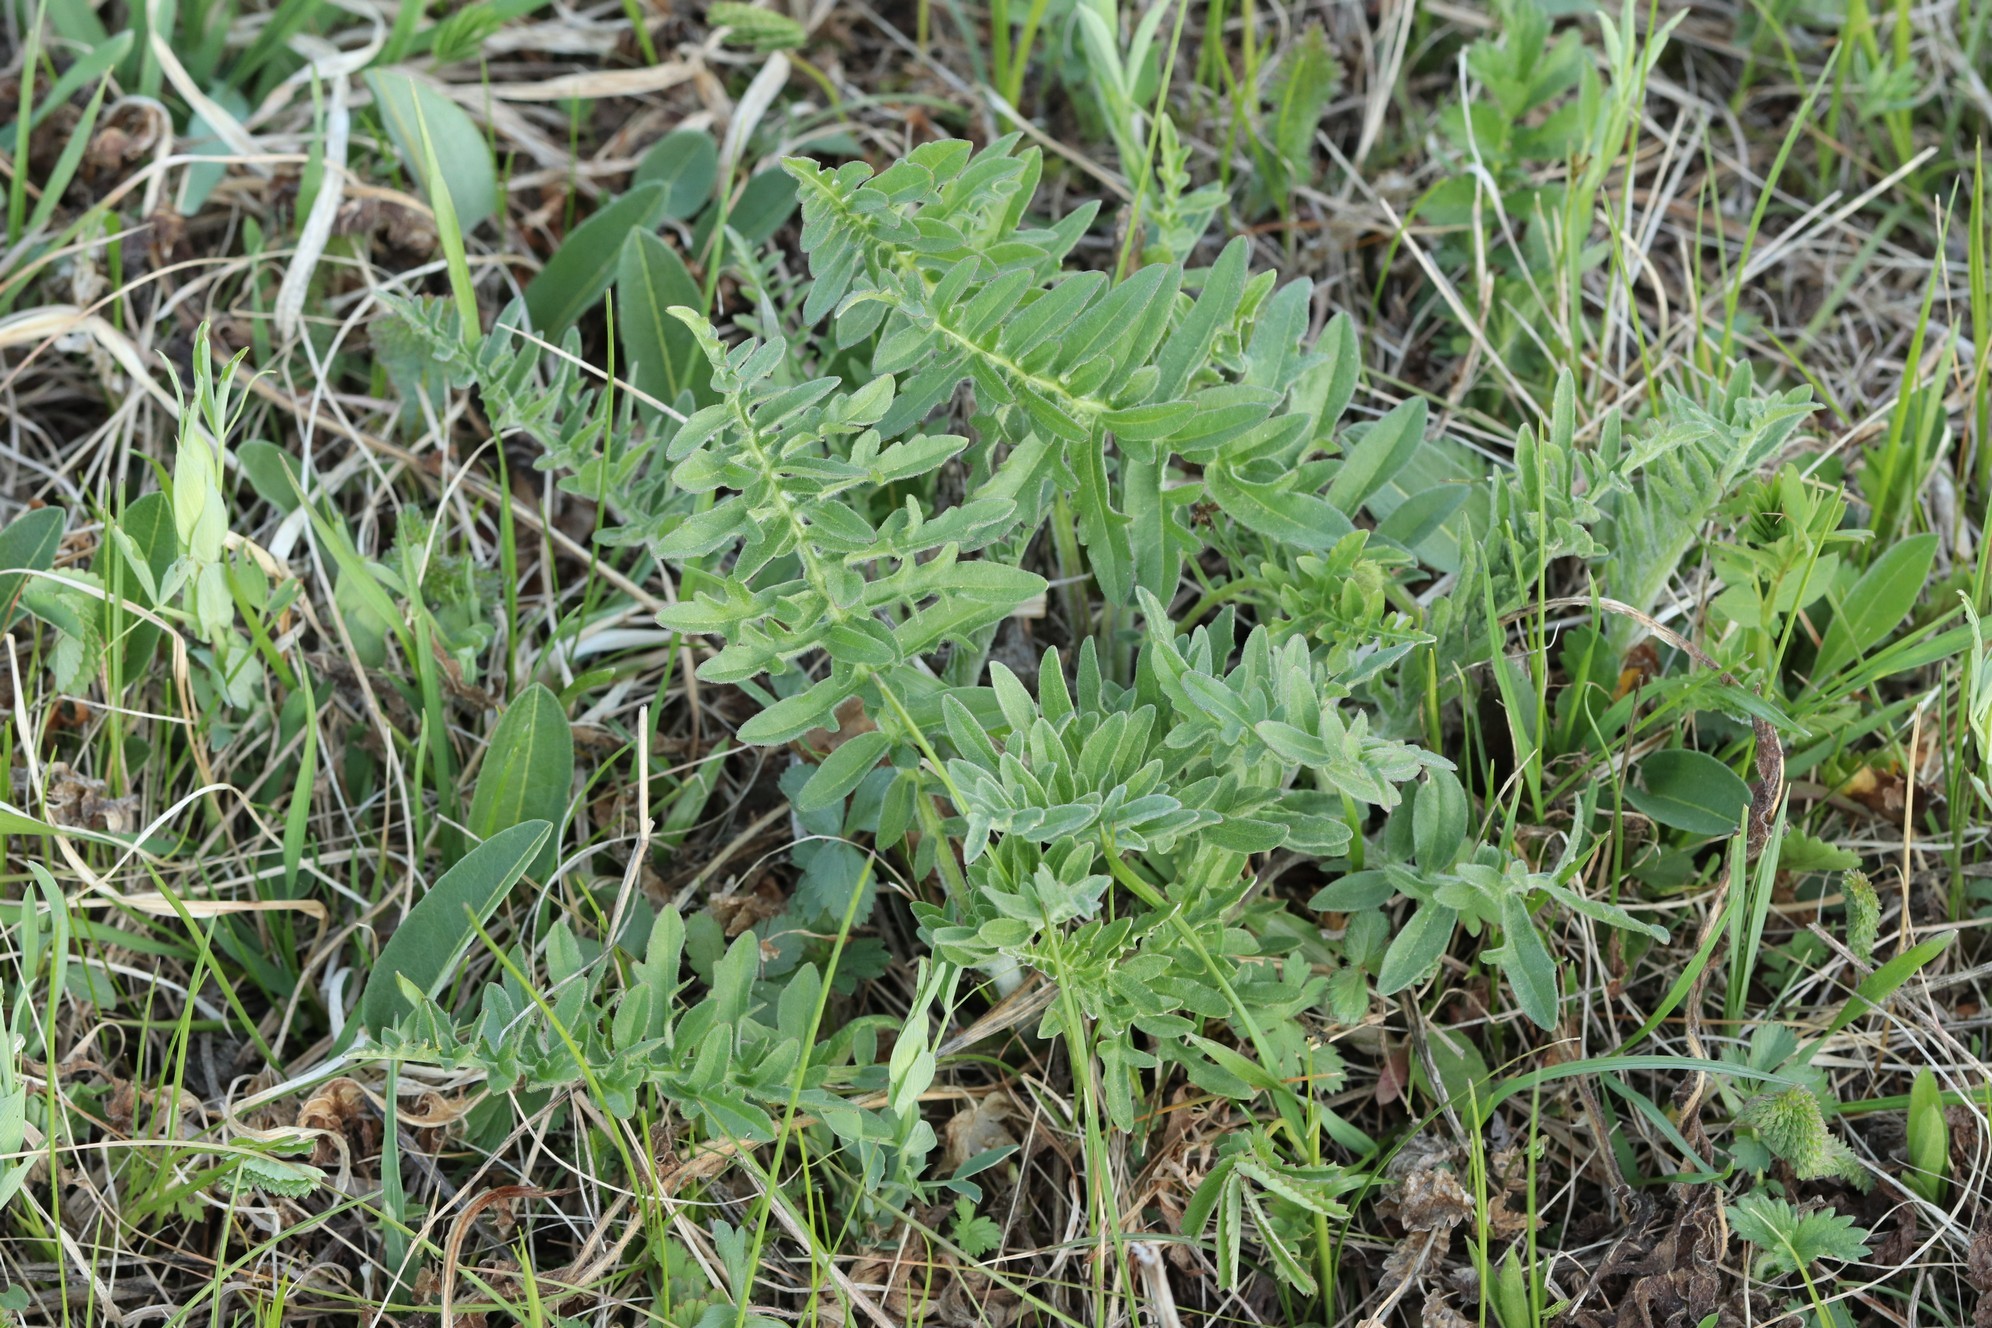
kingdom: Plantae
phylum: Tracheophyta
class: Magnoliopsida
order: Asterales
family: Asteraceae
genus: Centaurea
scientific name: Centaurea scabiosa
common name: Greater knapweed
